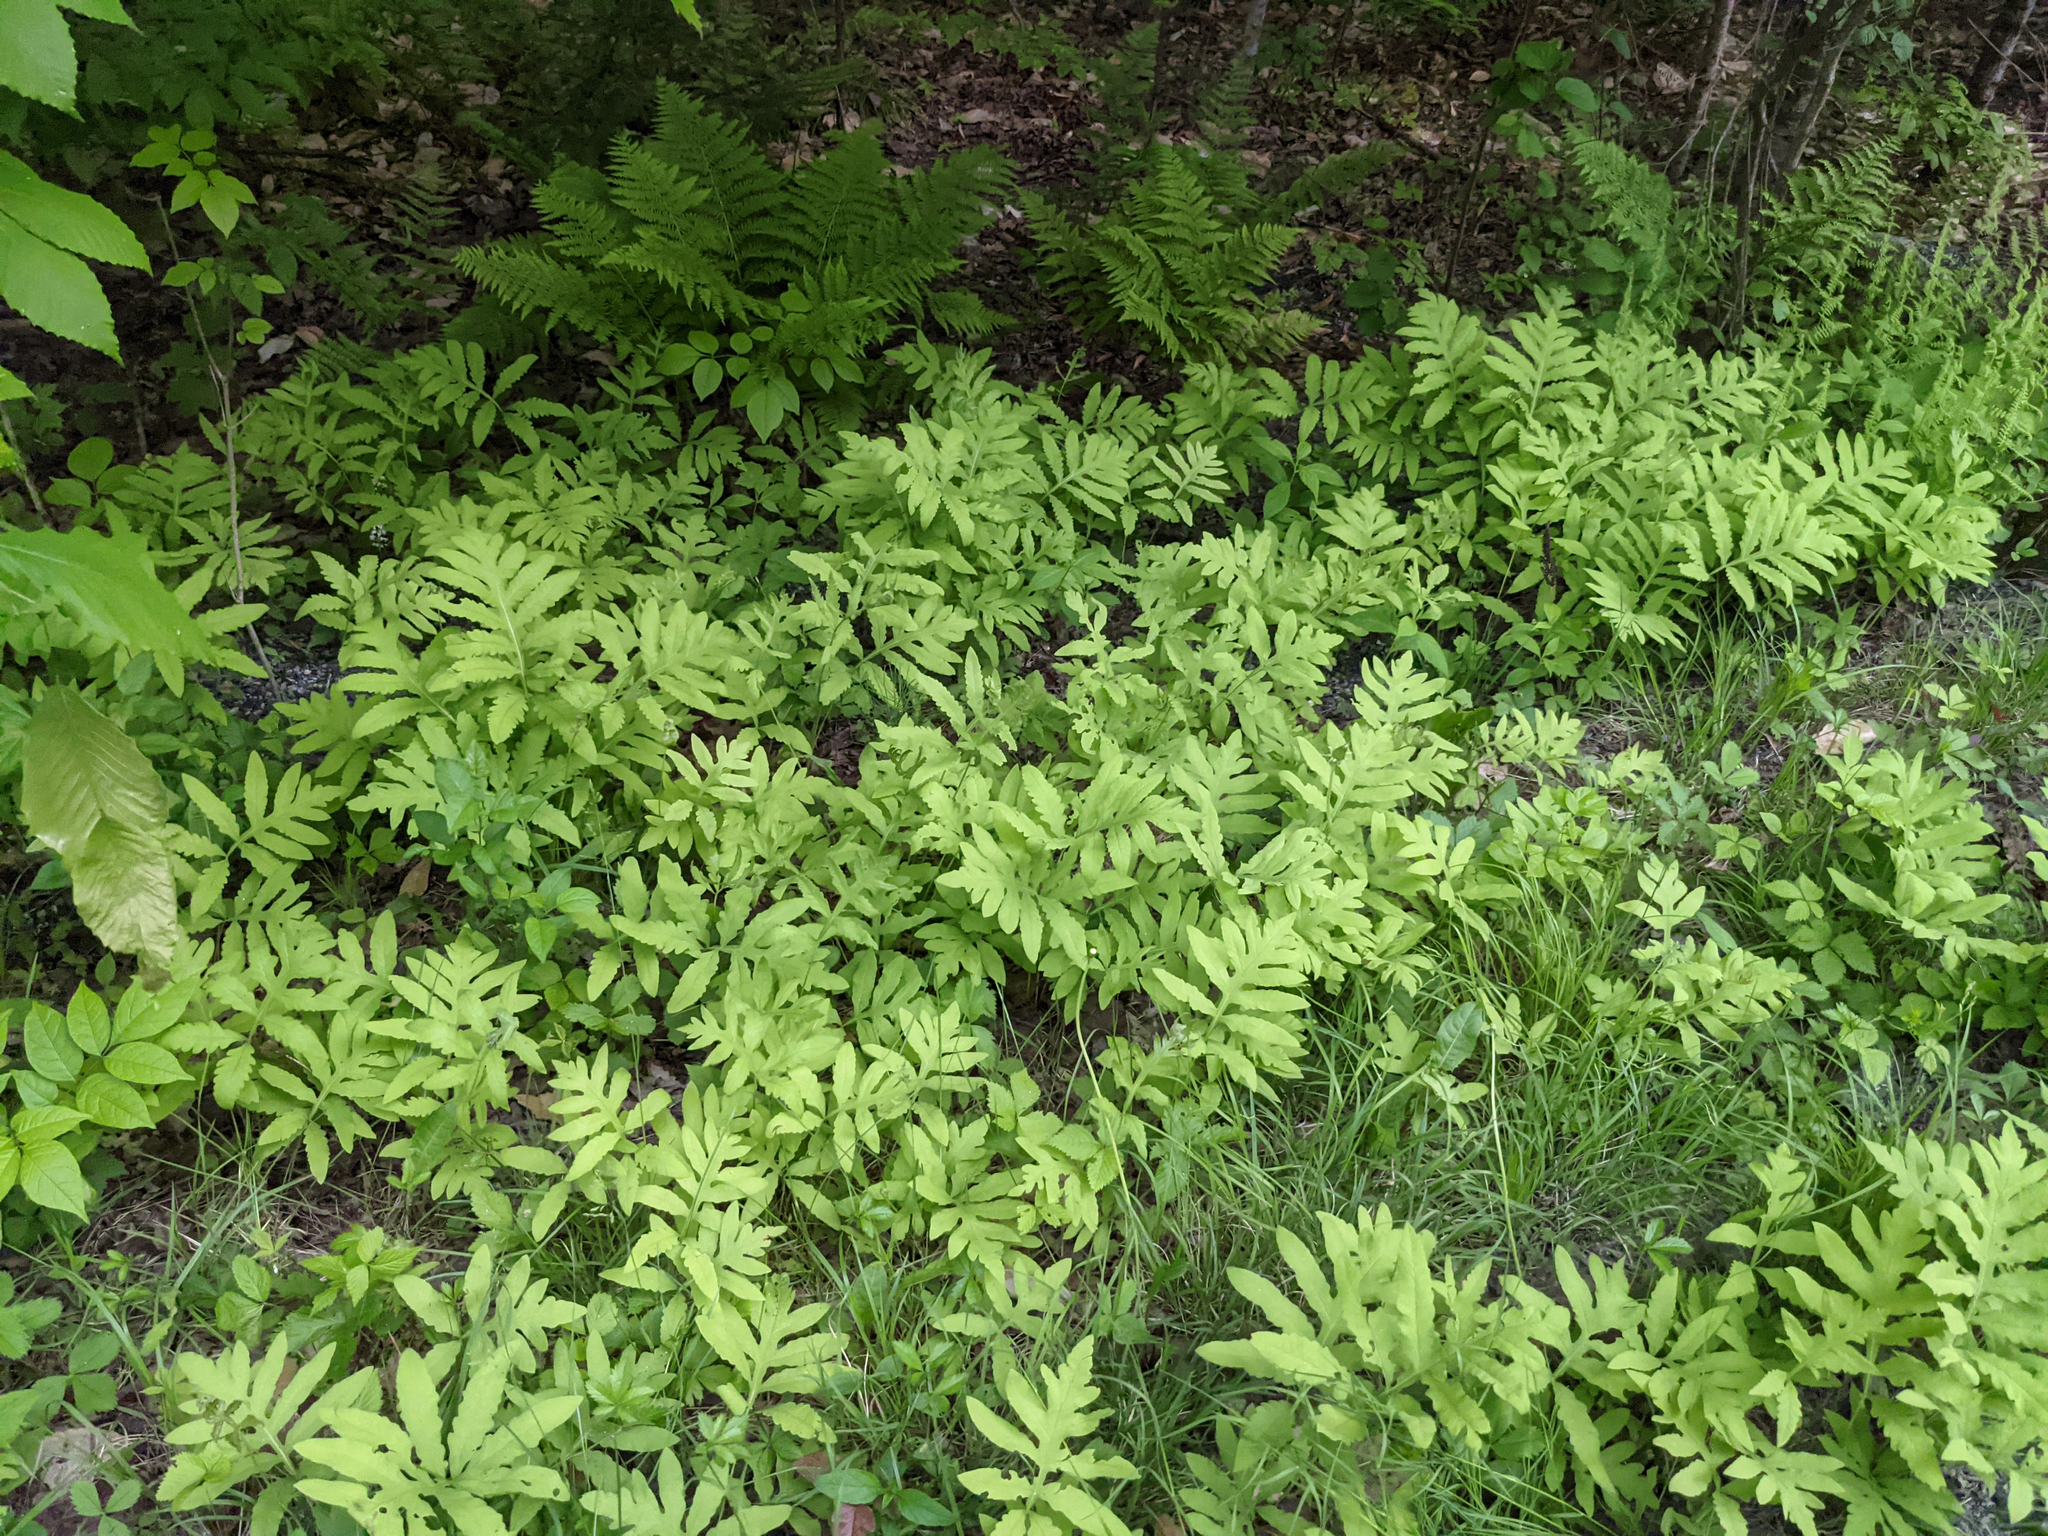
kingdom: Plantae
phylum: Tracheophyta
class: Polypodiopsida
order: Polypodiales
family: Onocleaceae
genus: Onoclea
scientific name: Onoclea sensibilis
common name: Sensitive fern
